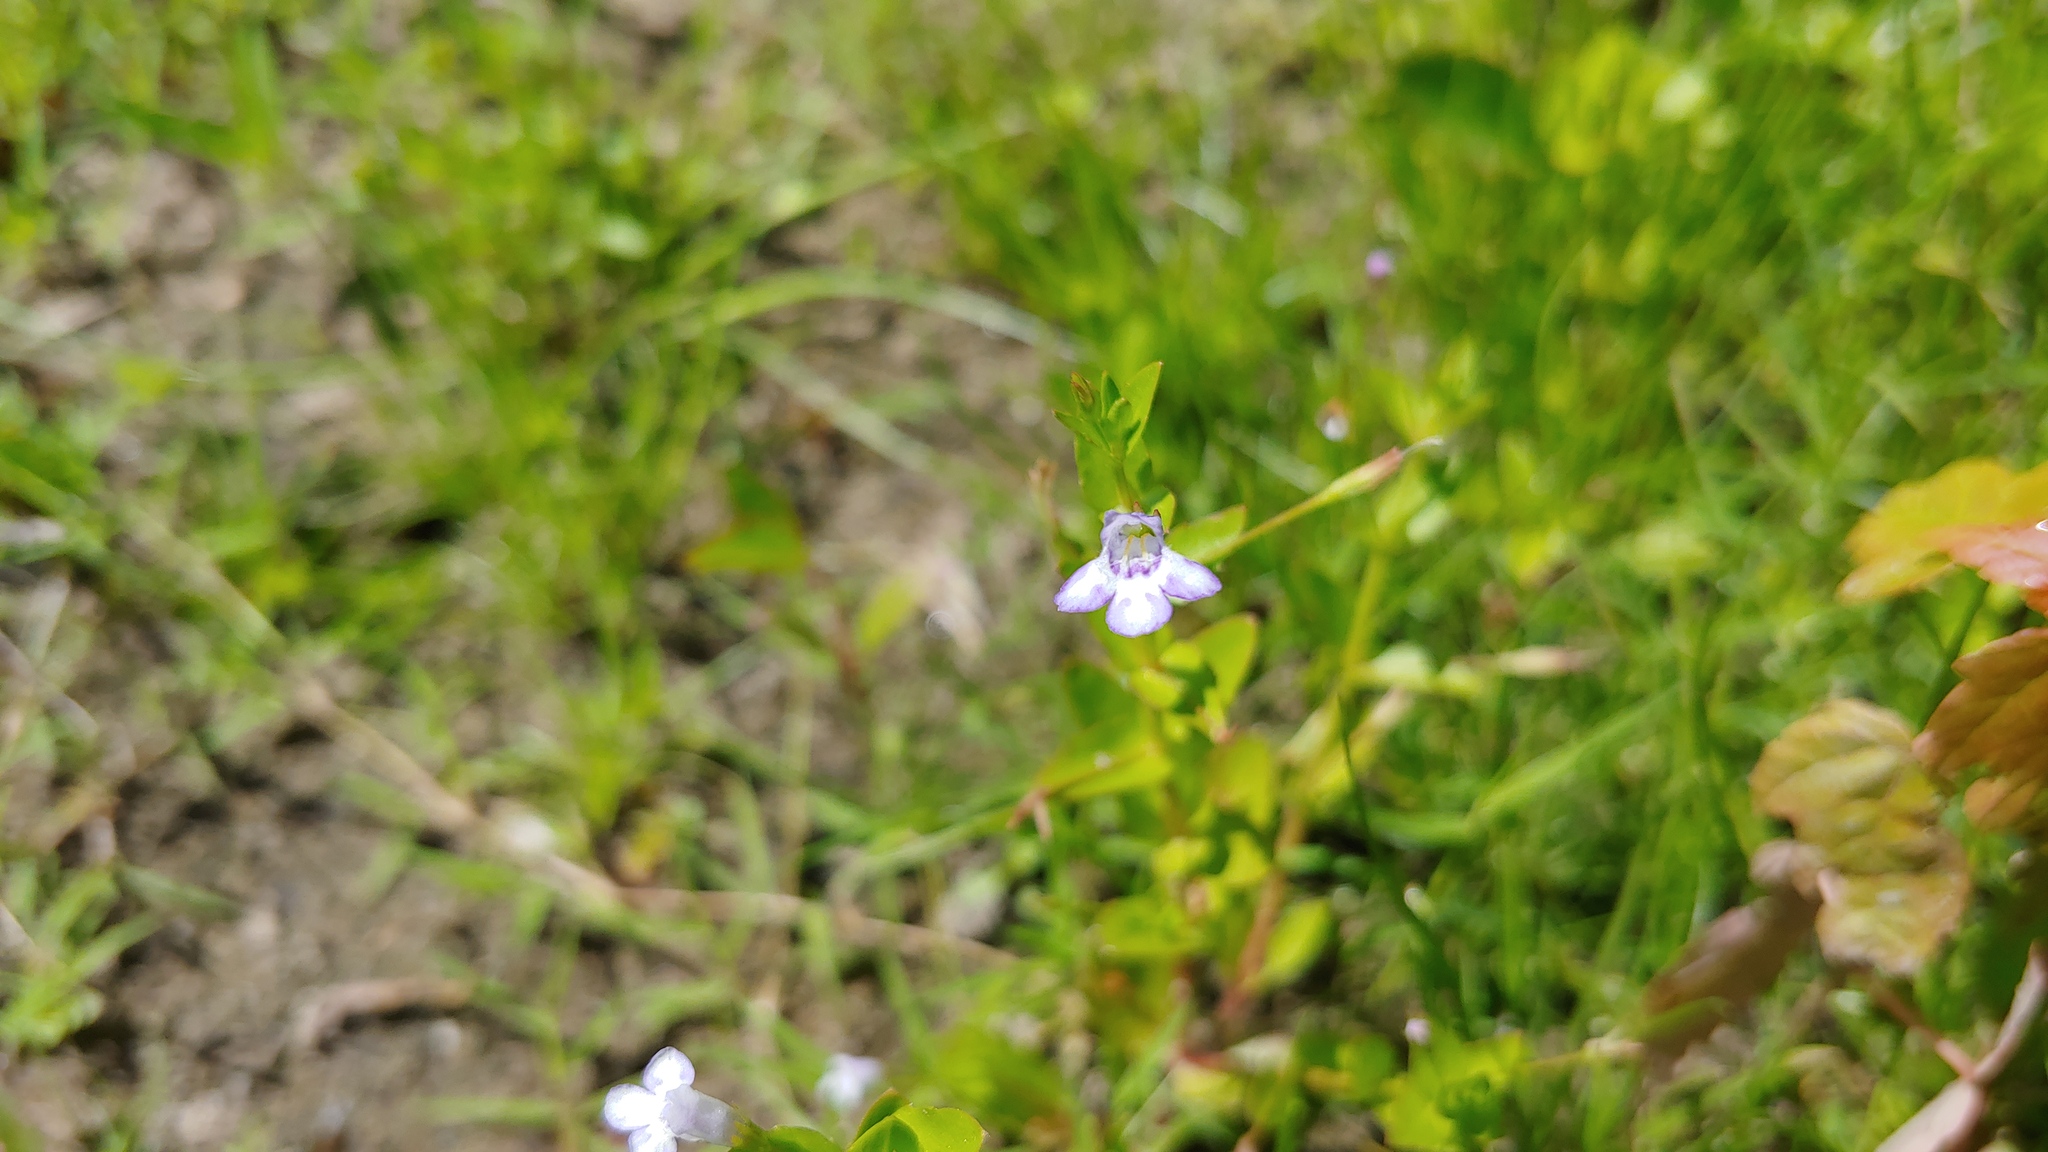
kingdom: Plantae
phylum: Tracheophyta
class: Magnoliopsida
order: Lamiales
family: Linderniaceae
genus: Lindernia
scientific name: Lindernia dubia
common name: Annual false pimpernel
